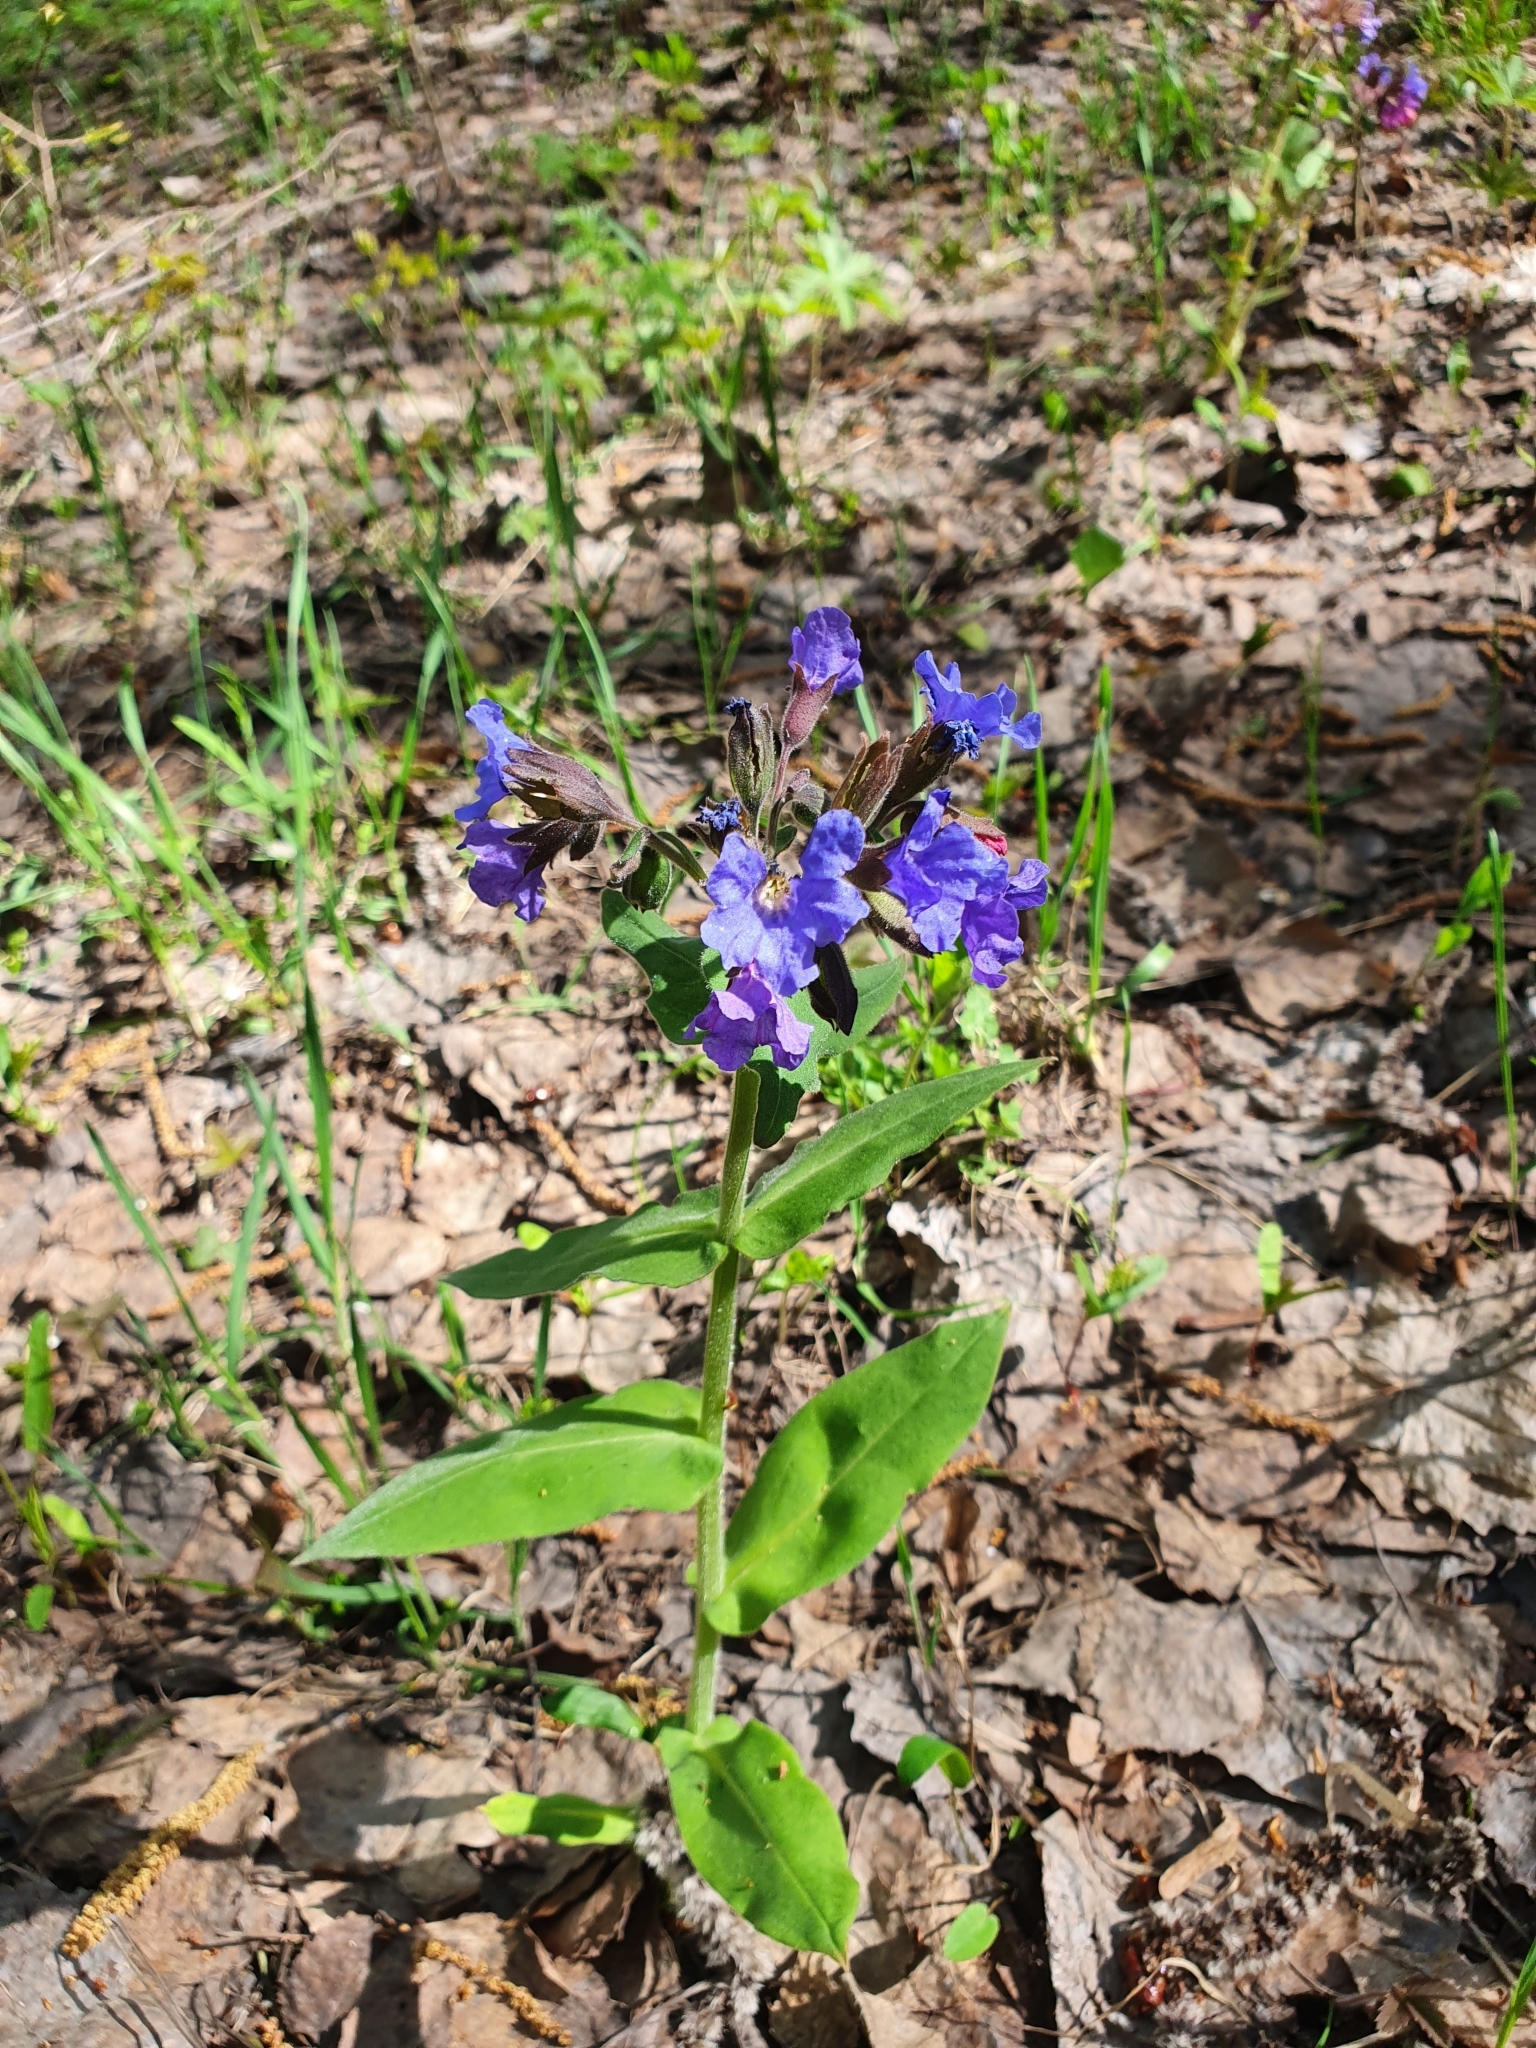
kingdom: Plantae
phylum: Tracheophyta
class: Magnoliopsida
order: Boraginales
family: Boraginaceae
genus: Pulmonaria
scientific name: Pulmonaria mollis
